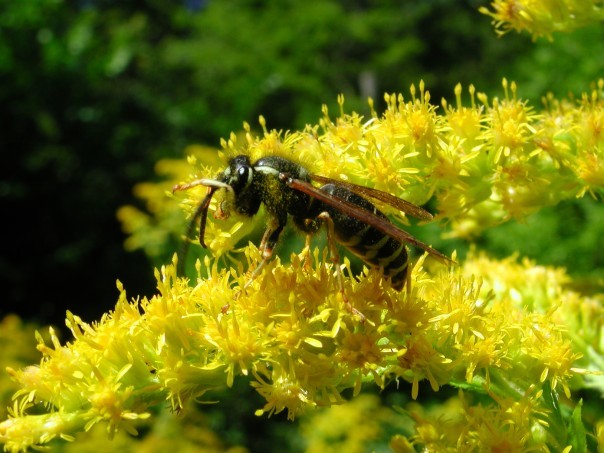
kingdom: Animalia
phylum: Arthropoda
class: Insecta
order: Hymenoptera
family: Vespidae
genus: Vespula
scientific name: Vespula
